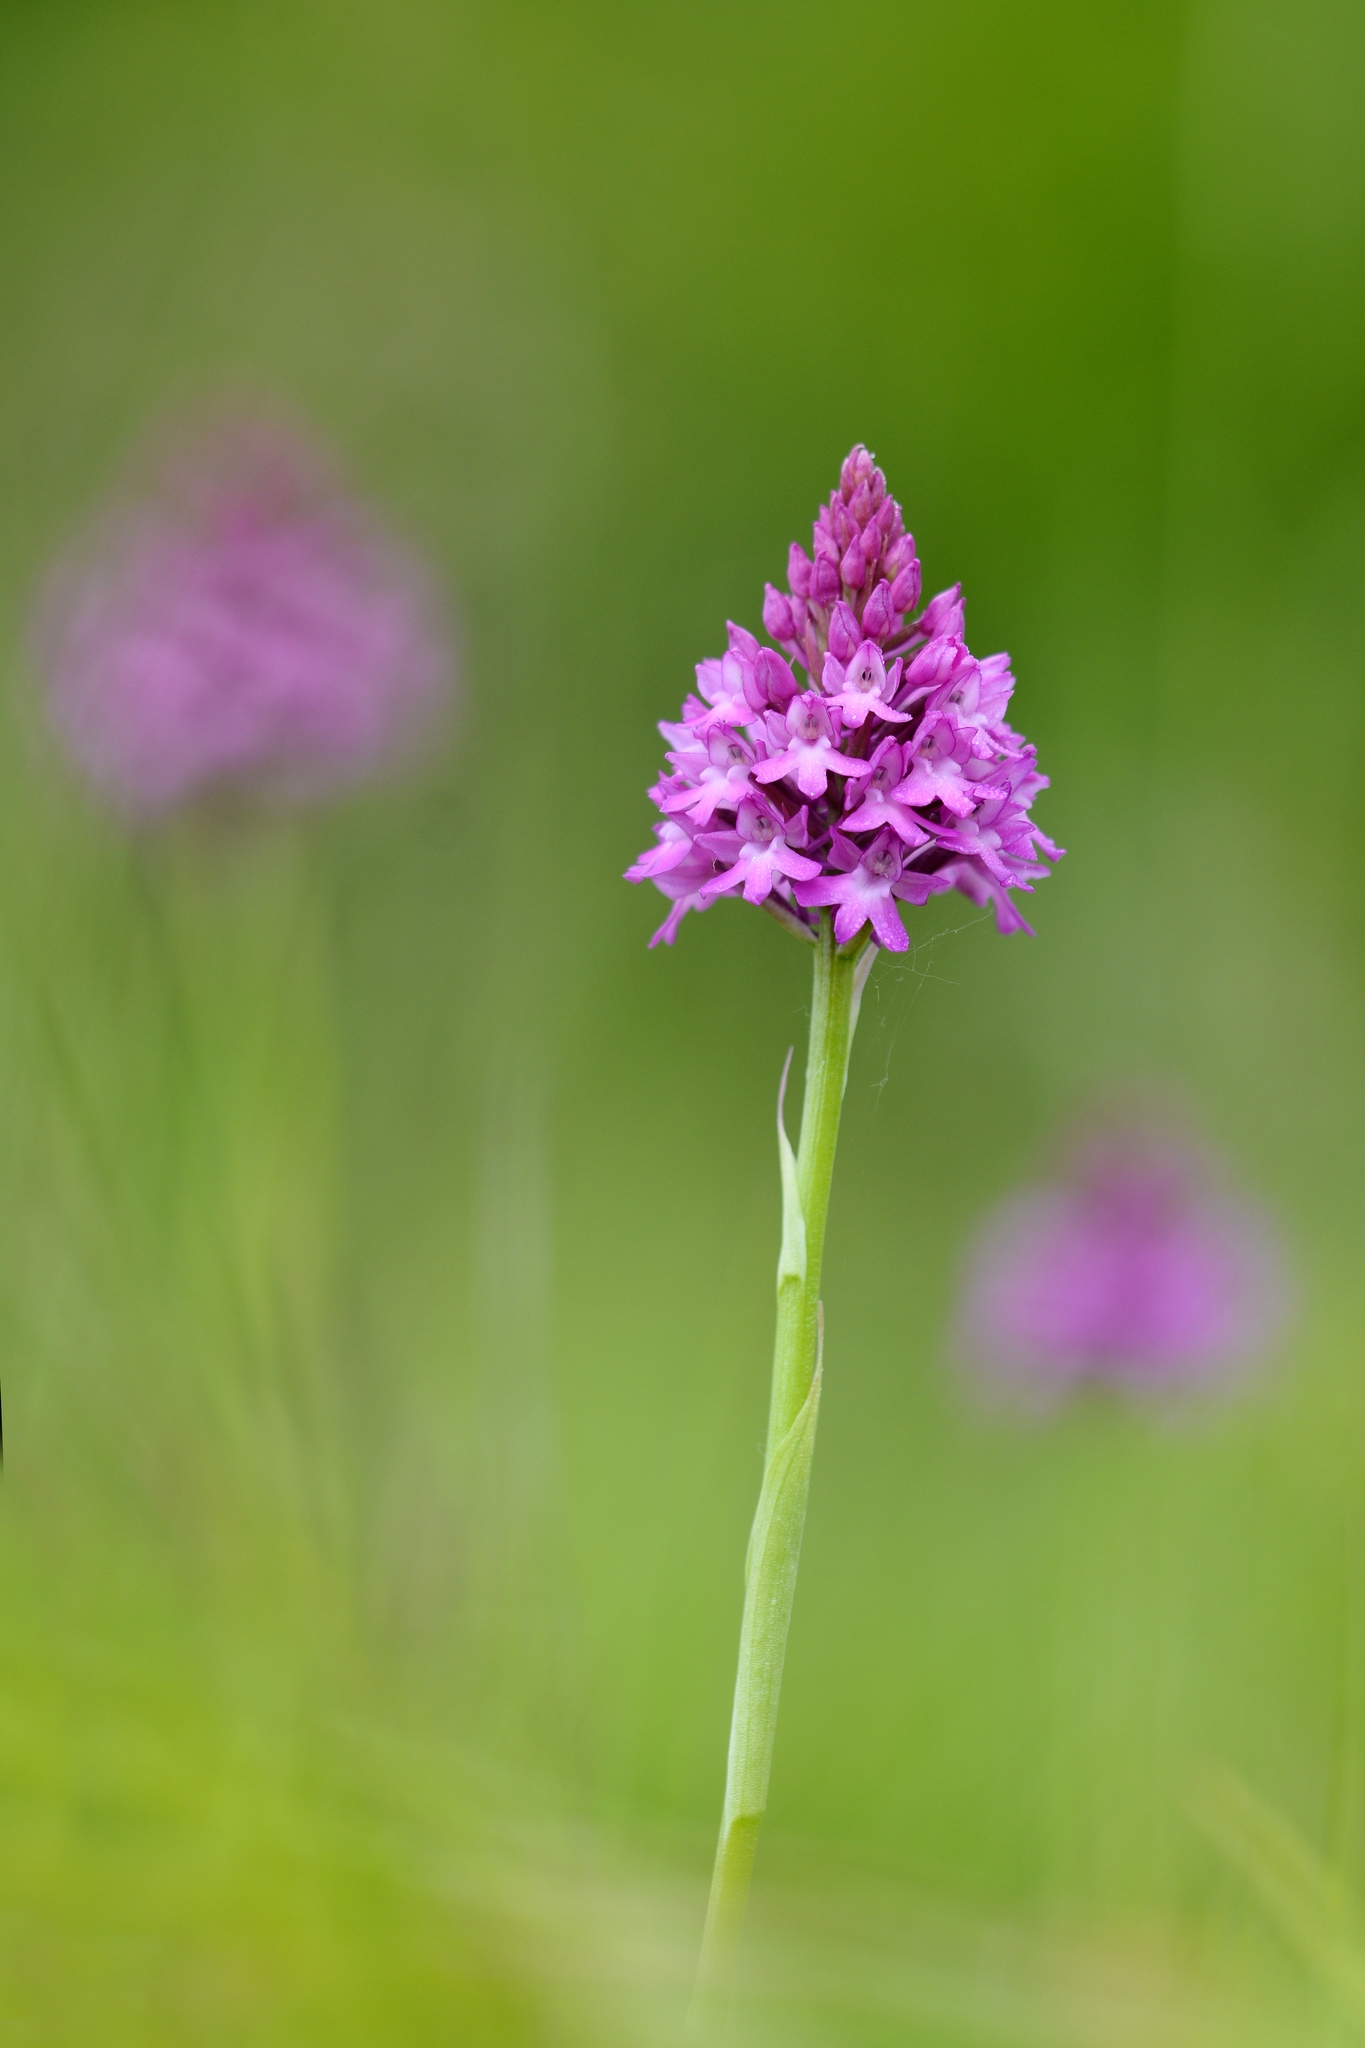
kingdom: Plantae
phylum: Tracheophyta
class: Liliopsida
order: Asparagales
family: Orchidaceae
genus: Anacamptis
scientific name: Anacamptis pyramidalis
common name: Pyramidal orchid
